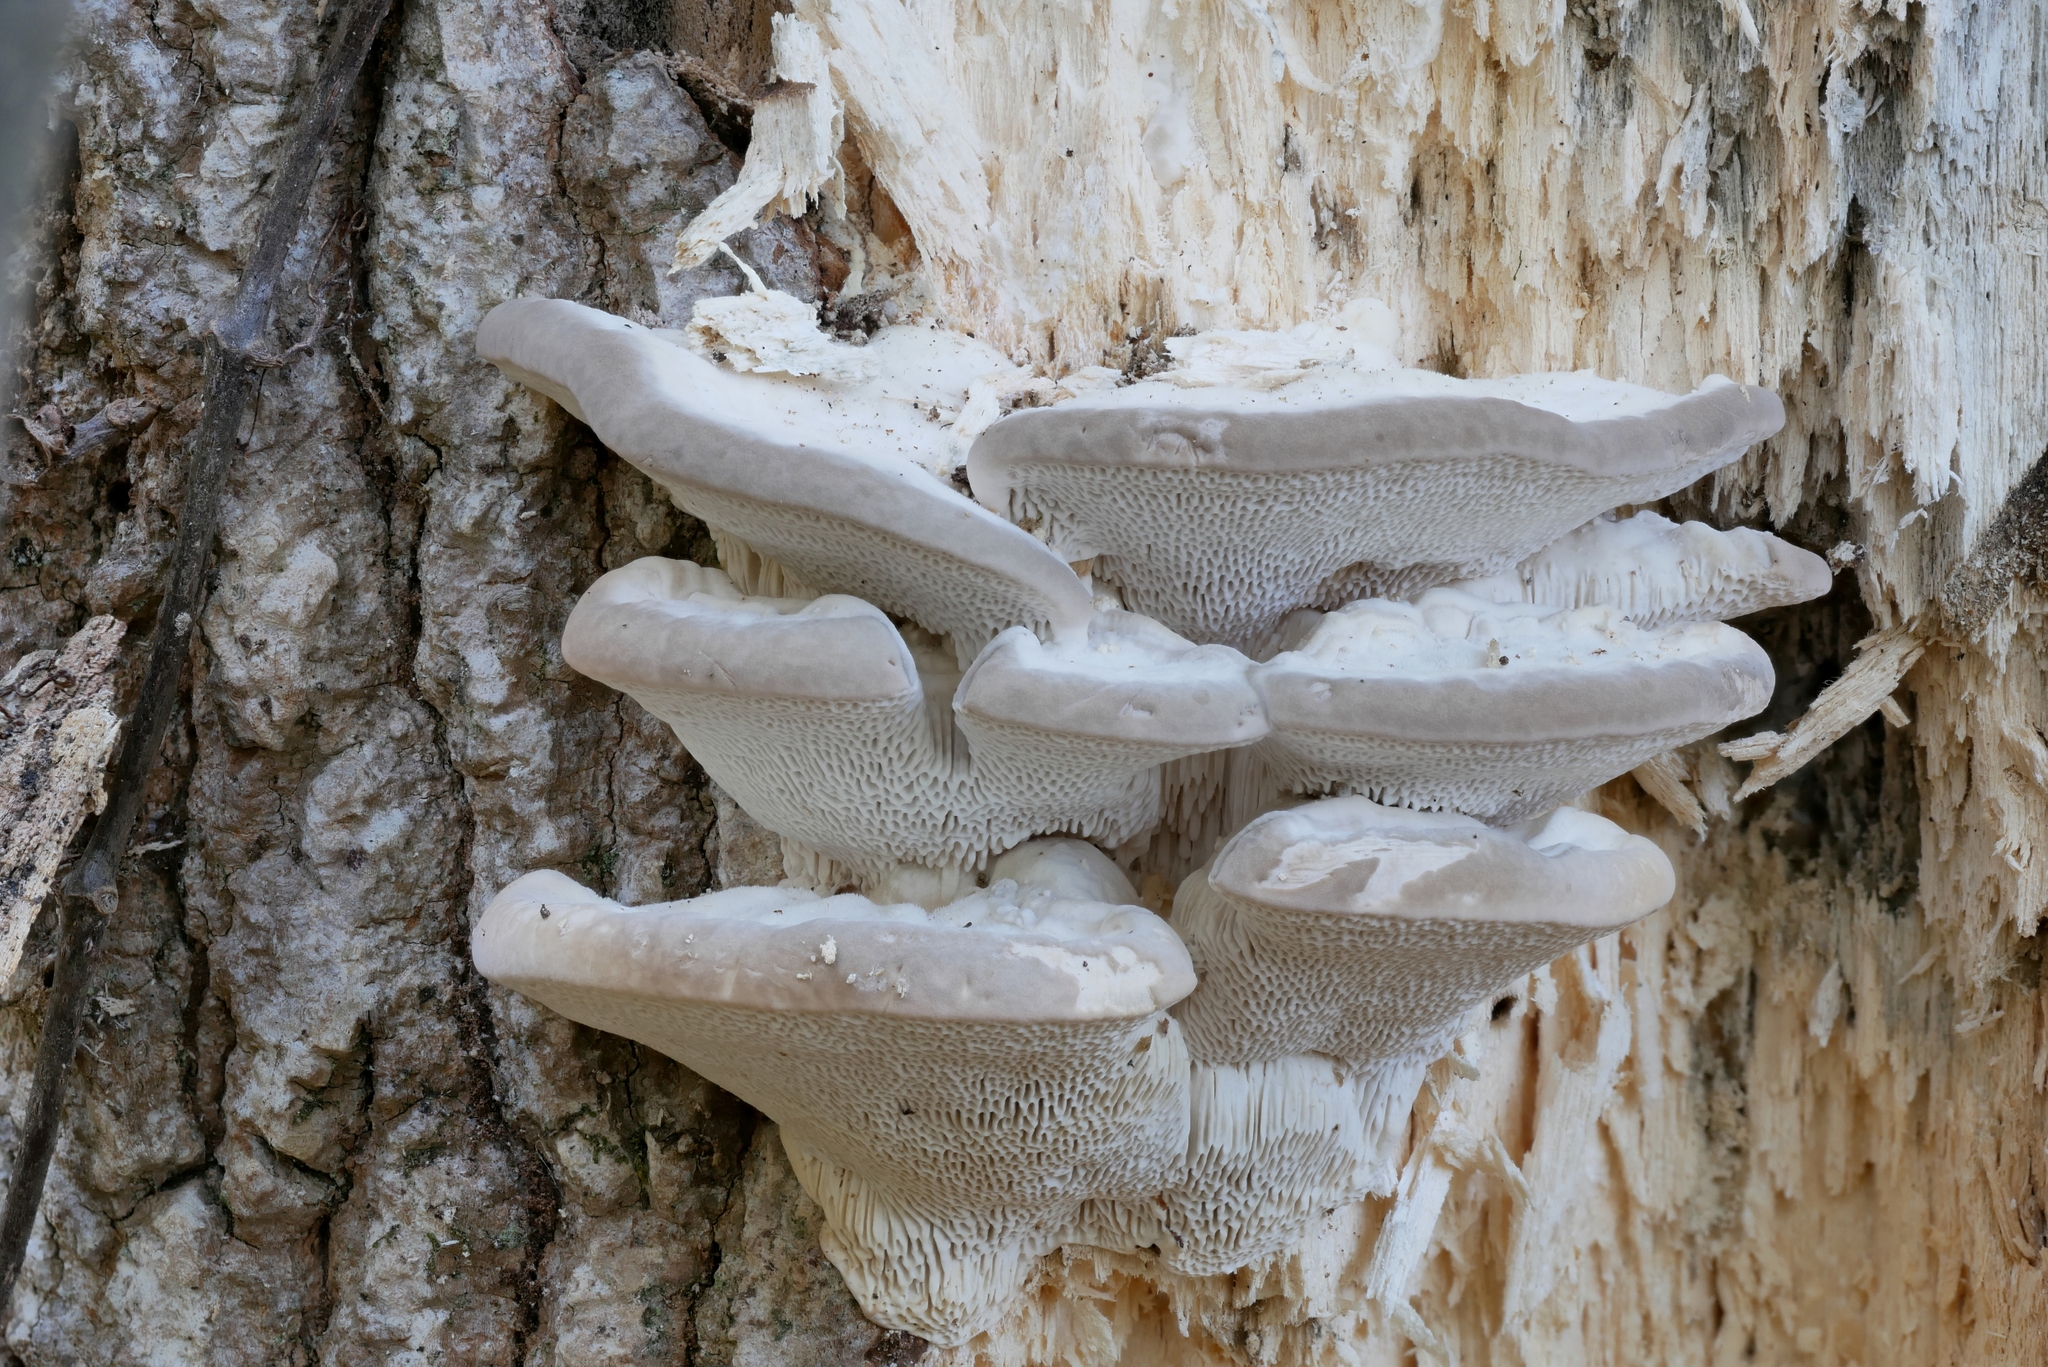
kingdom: Fungi
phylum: Basidiomycota
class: Agaricomycetes
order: Polyporales
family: Polyporaceae
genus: Trametes
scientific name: Trametes gibbosa
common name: Lumpy bracket
